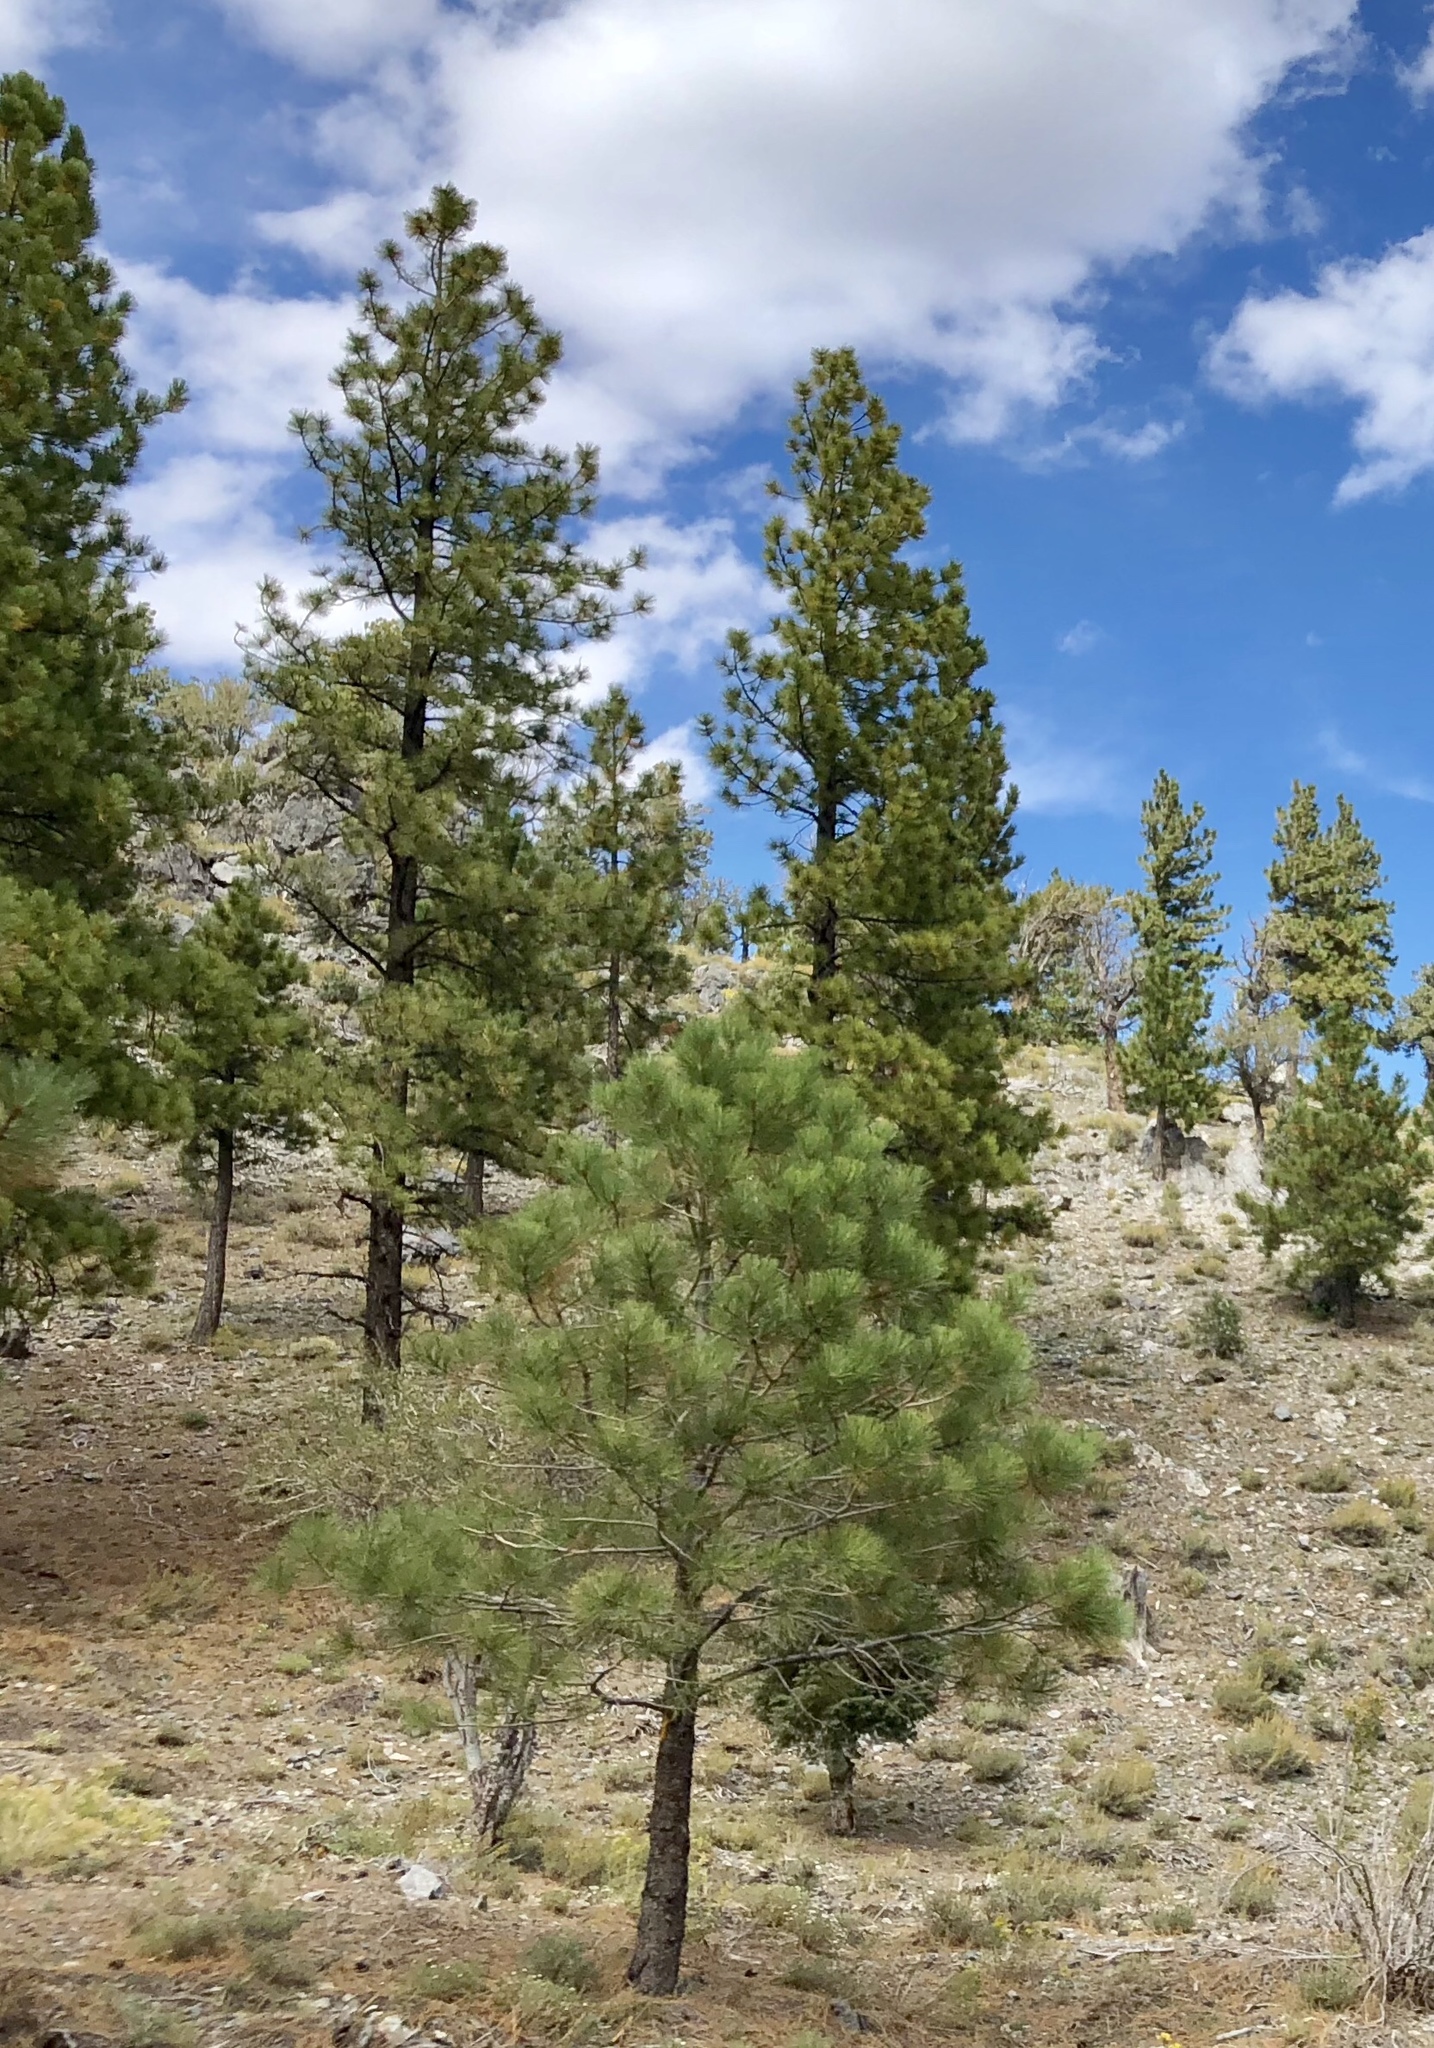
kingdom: Plantae
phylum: Tracheophyta
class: Pinopsida
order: Pinales
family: Pinaceae
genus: Pinus
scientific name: Pinus ponderosa
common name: Western yellow-pine
